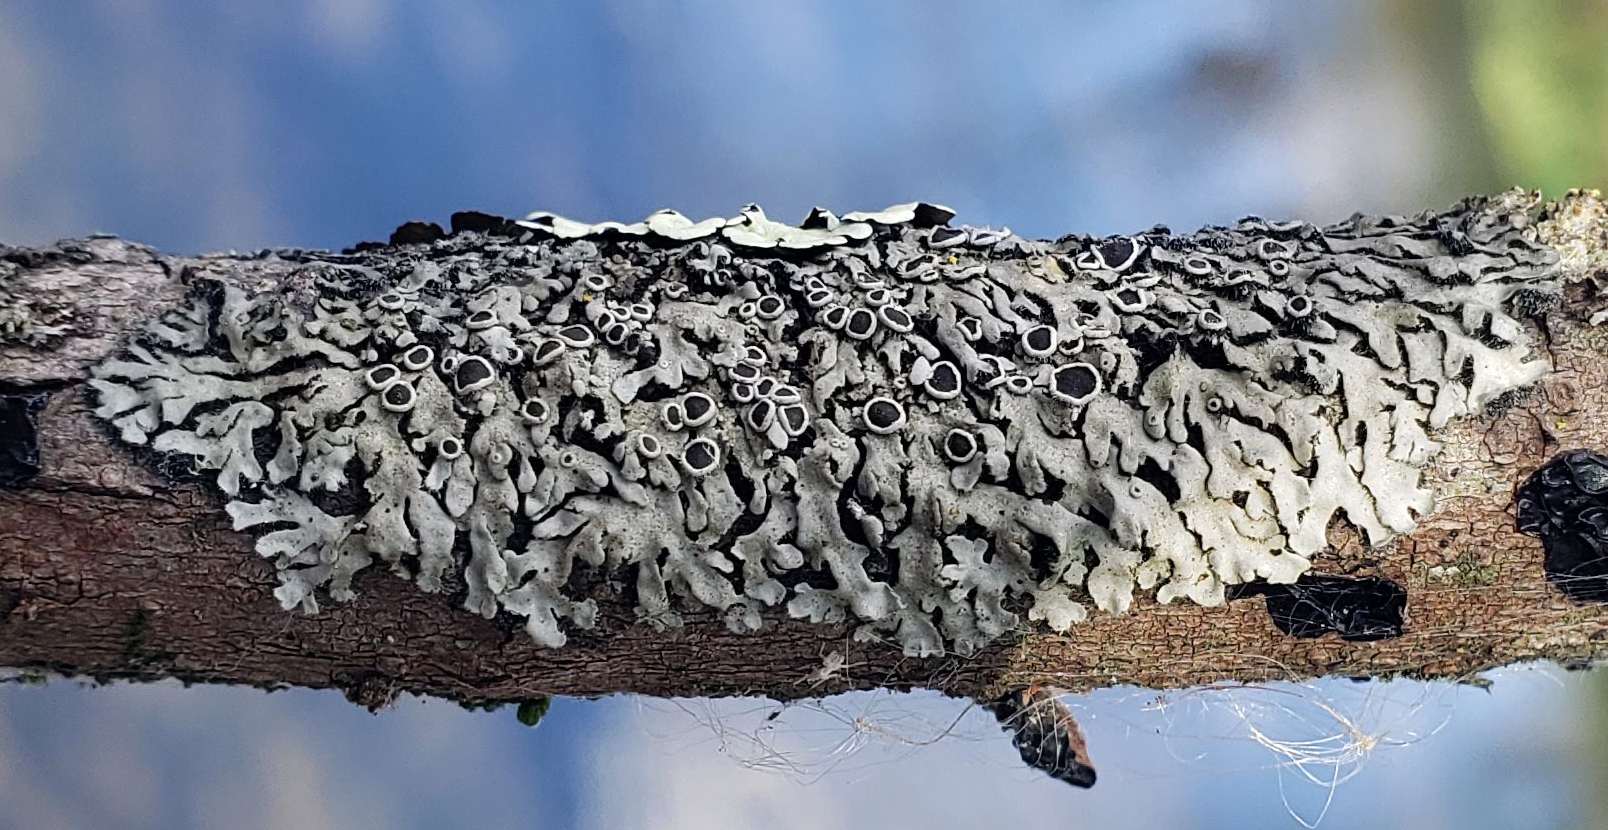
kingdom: Fungi
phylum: Ascomycota
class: Lecanoromycetes
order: Caliciales
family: Physciaceae
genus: Phaeophyscia
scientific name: Phaeophyscia hirtella
